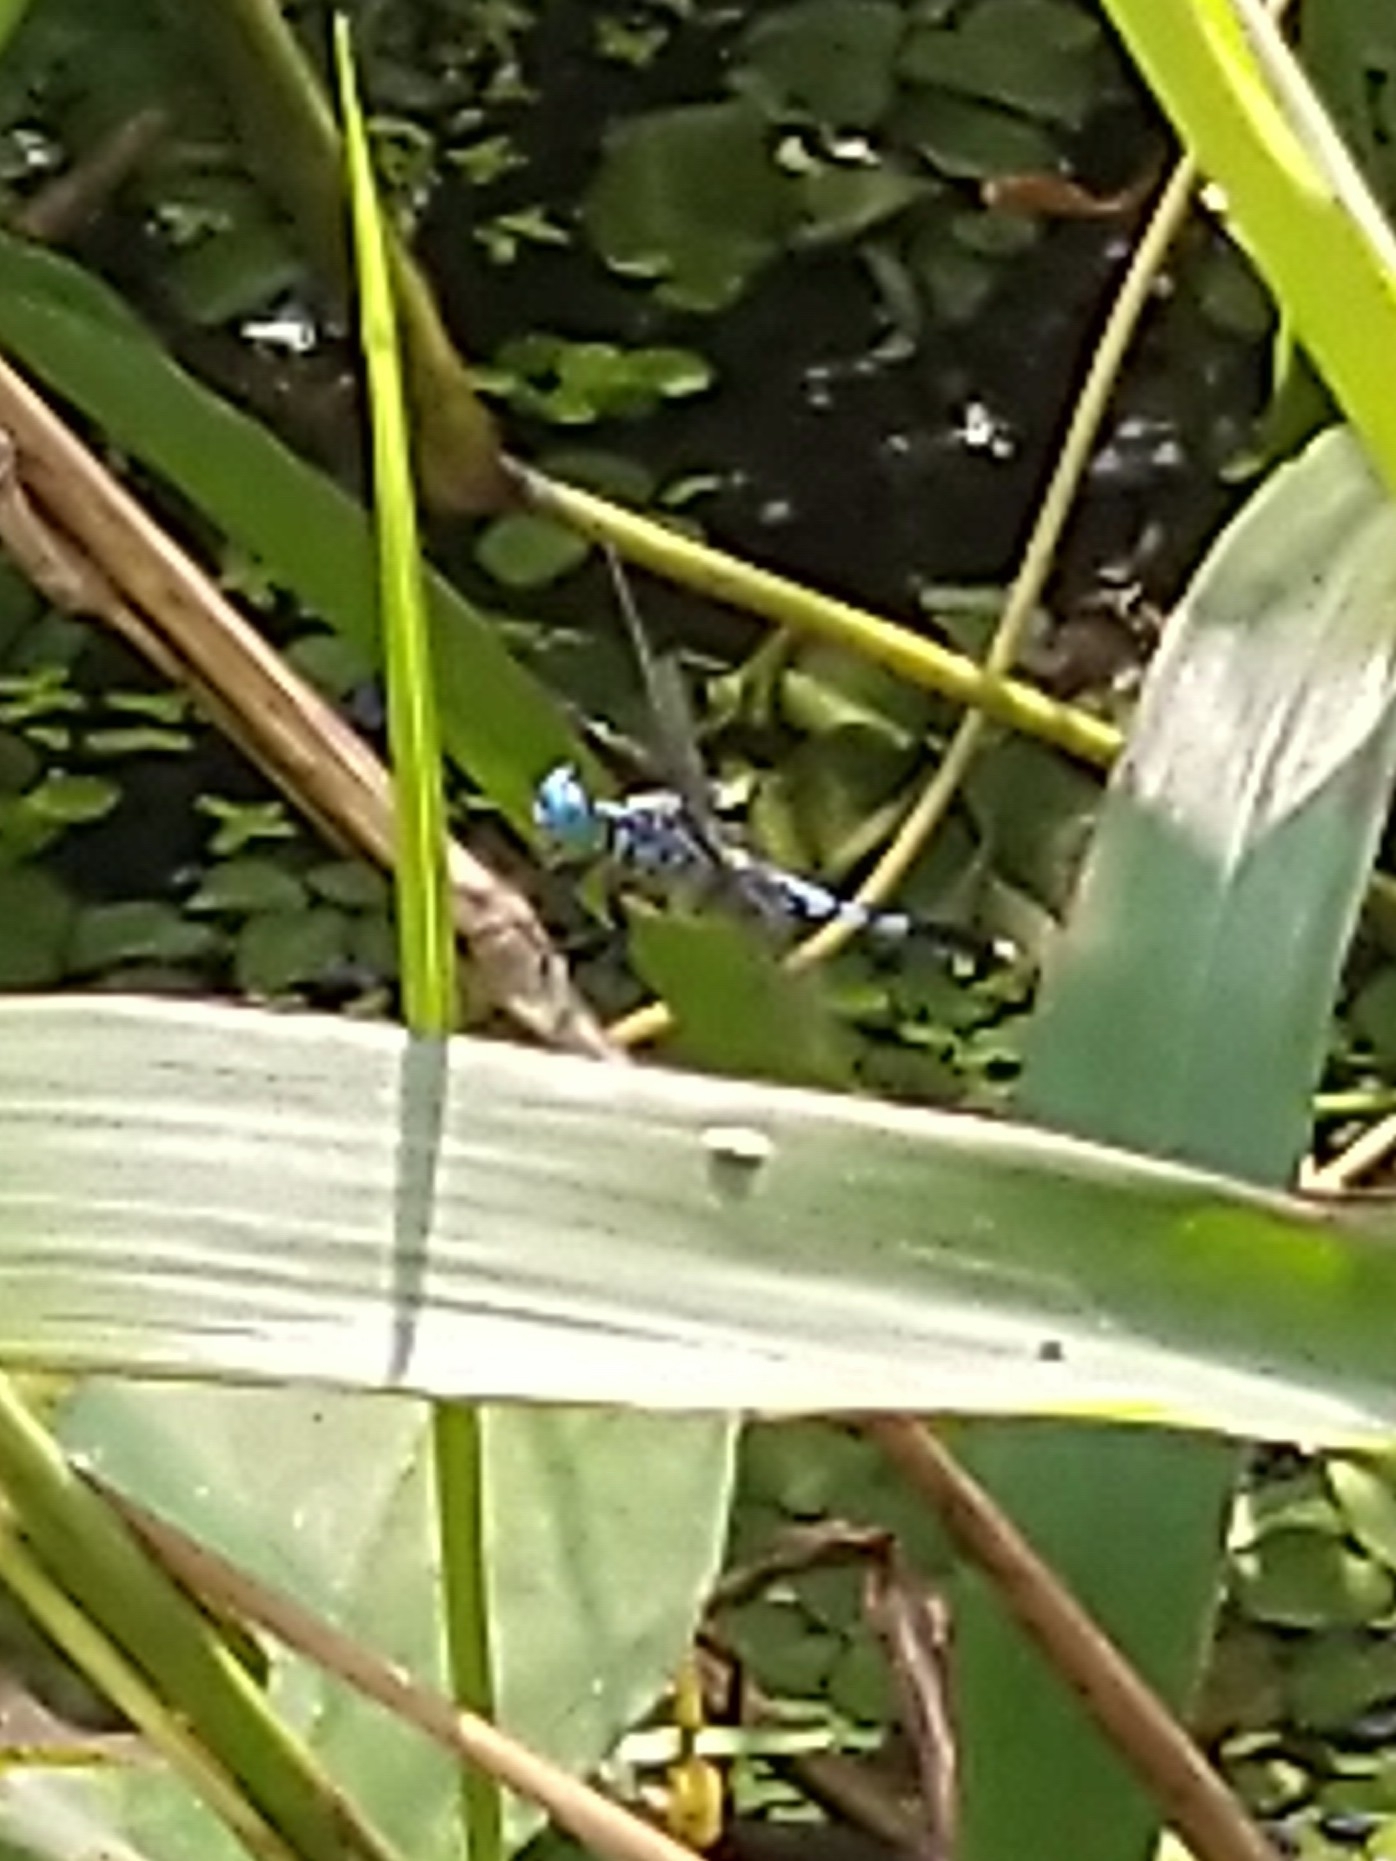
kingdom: Animalia
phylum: Arthropoda
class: Insecta
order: Odonata
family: Libellulidae
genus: Acisoma
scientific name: Acisoma panorpoides
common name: Asian pintail
